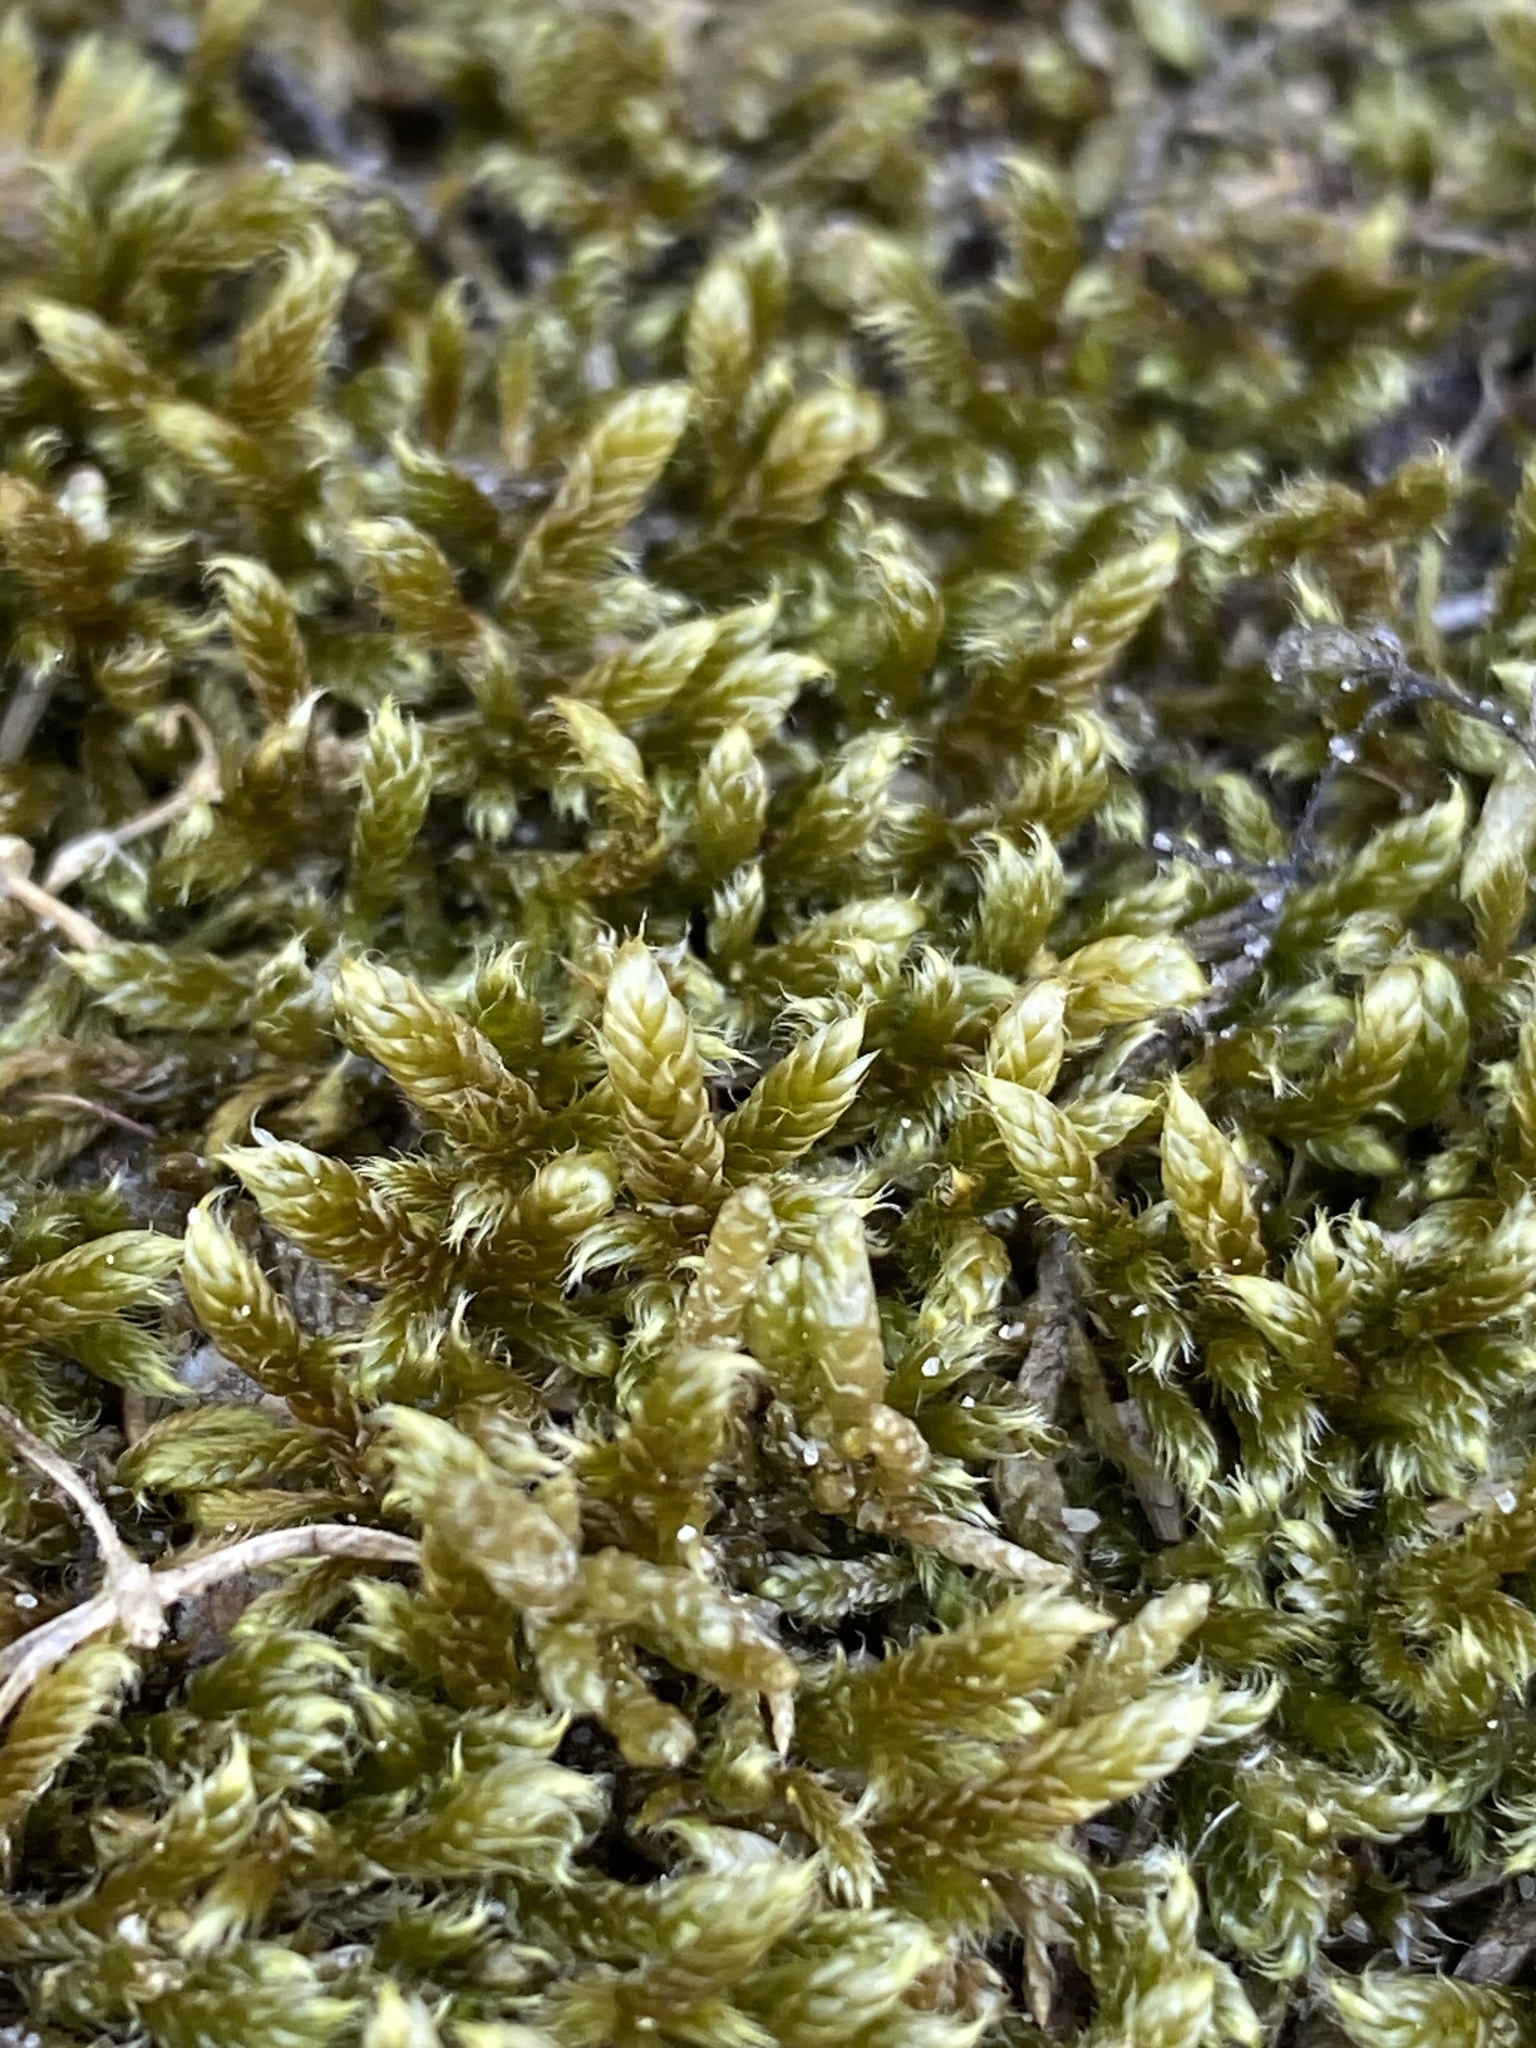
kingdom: Plantae
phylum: Bryophyta
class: Bryopsida
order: Hypnales
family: Hypnaceae
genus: Hypnum
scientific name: Hypnum cupressiforme
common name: Cypress-leaved plait-moss
